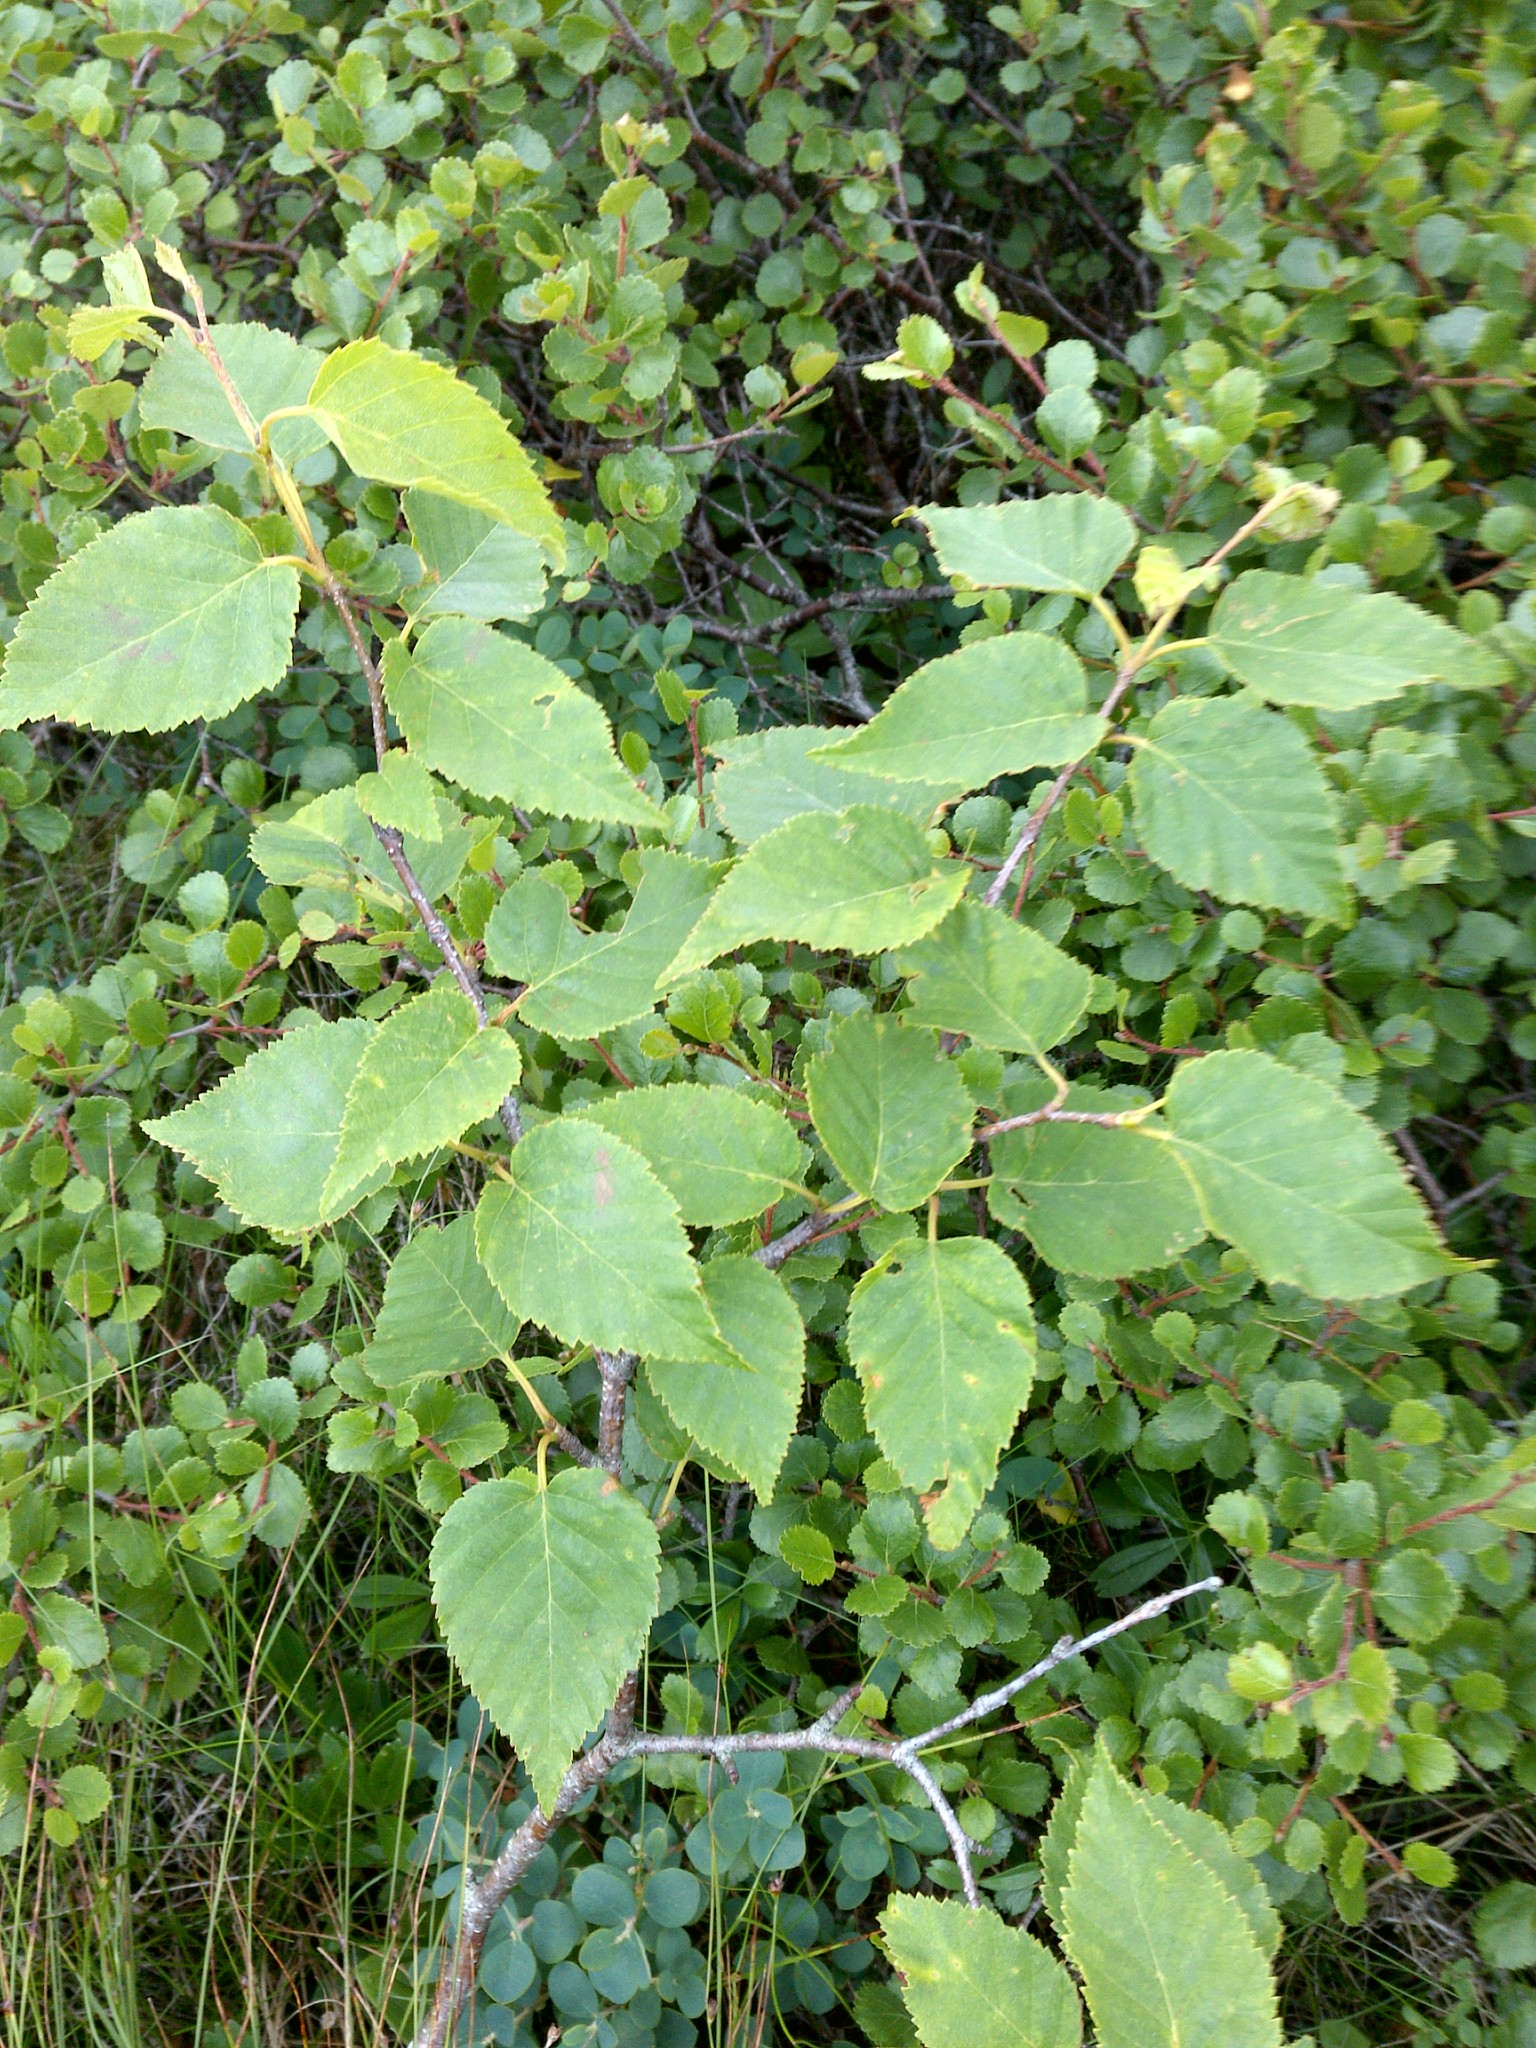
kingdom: Plantae
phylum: Tracheophyta
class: Magnoliopsida
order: Fagales
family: Betulaceae
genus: Betula
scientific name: Betula cordifolia
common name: Mountain white birch
